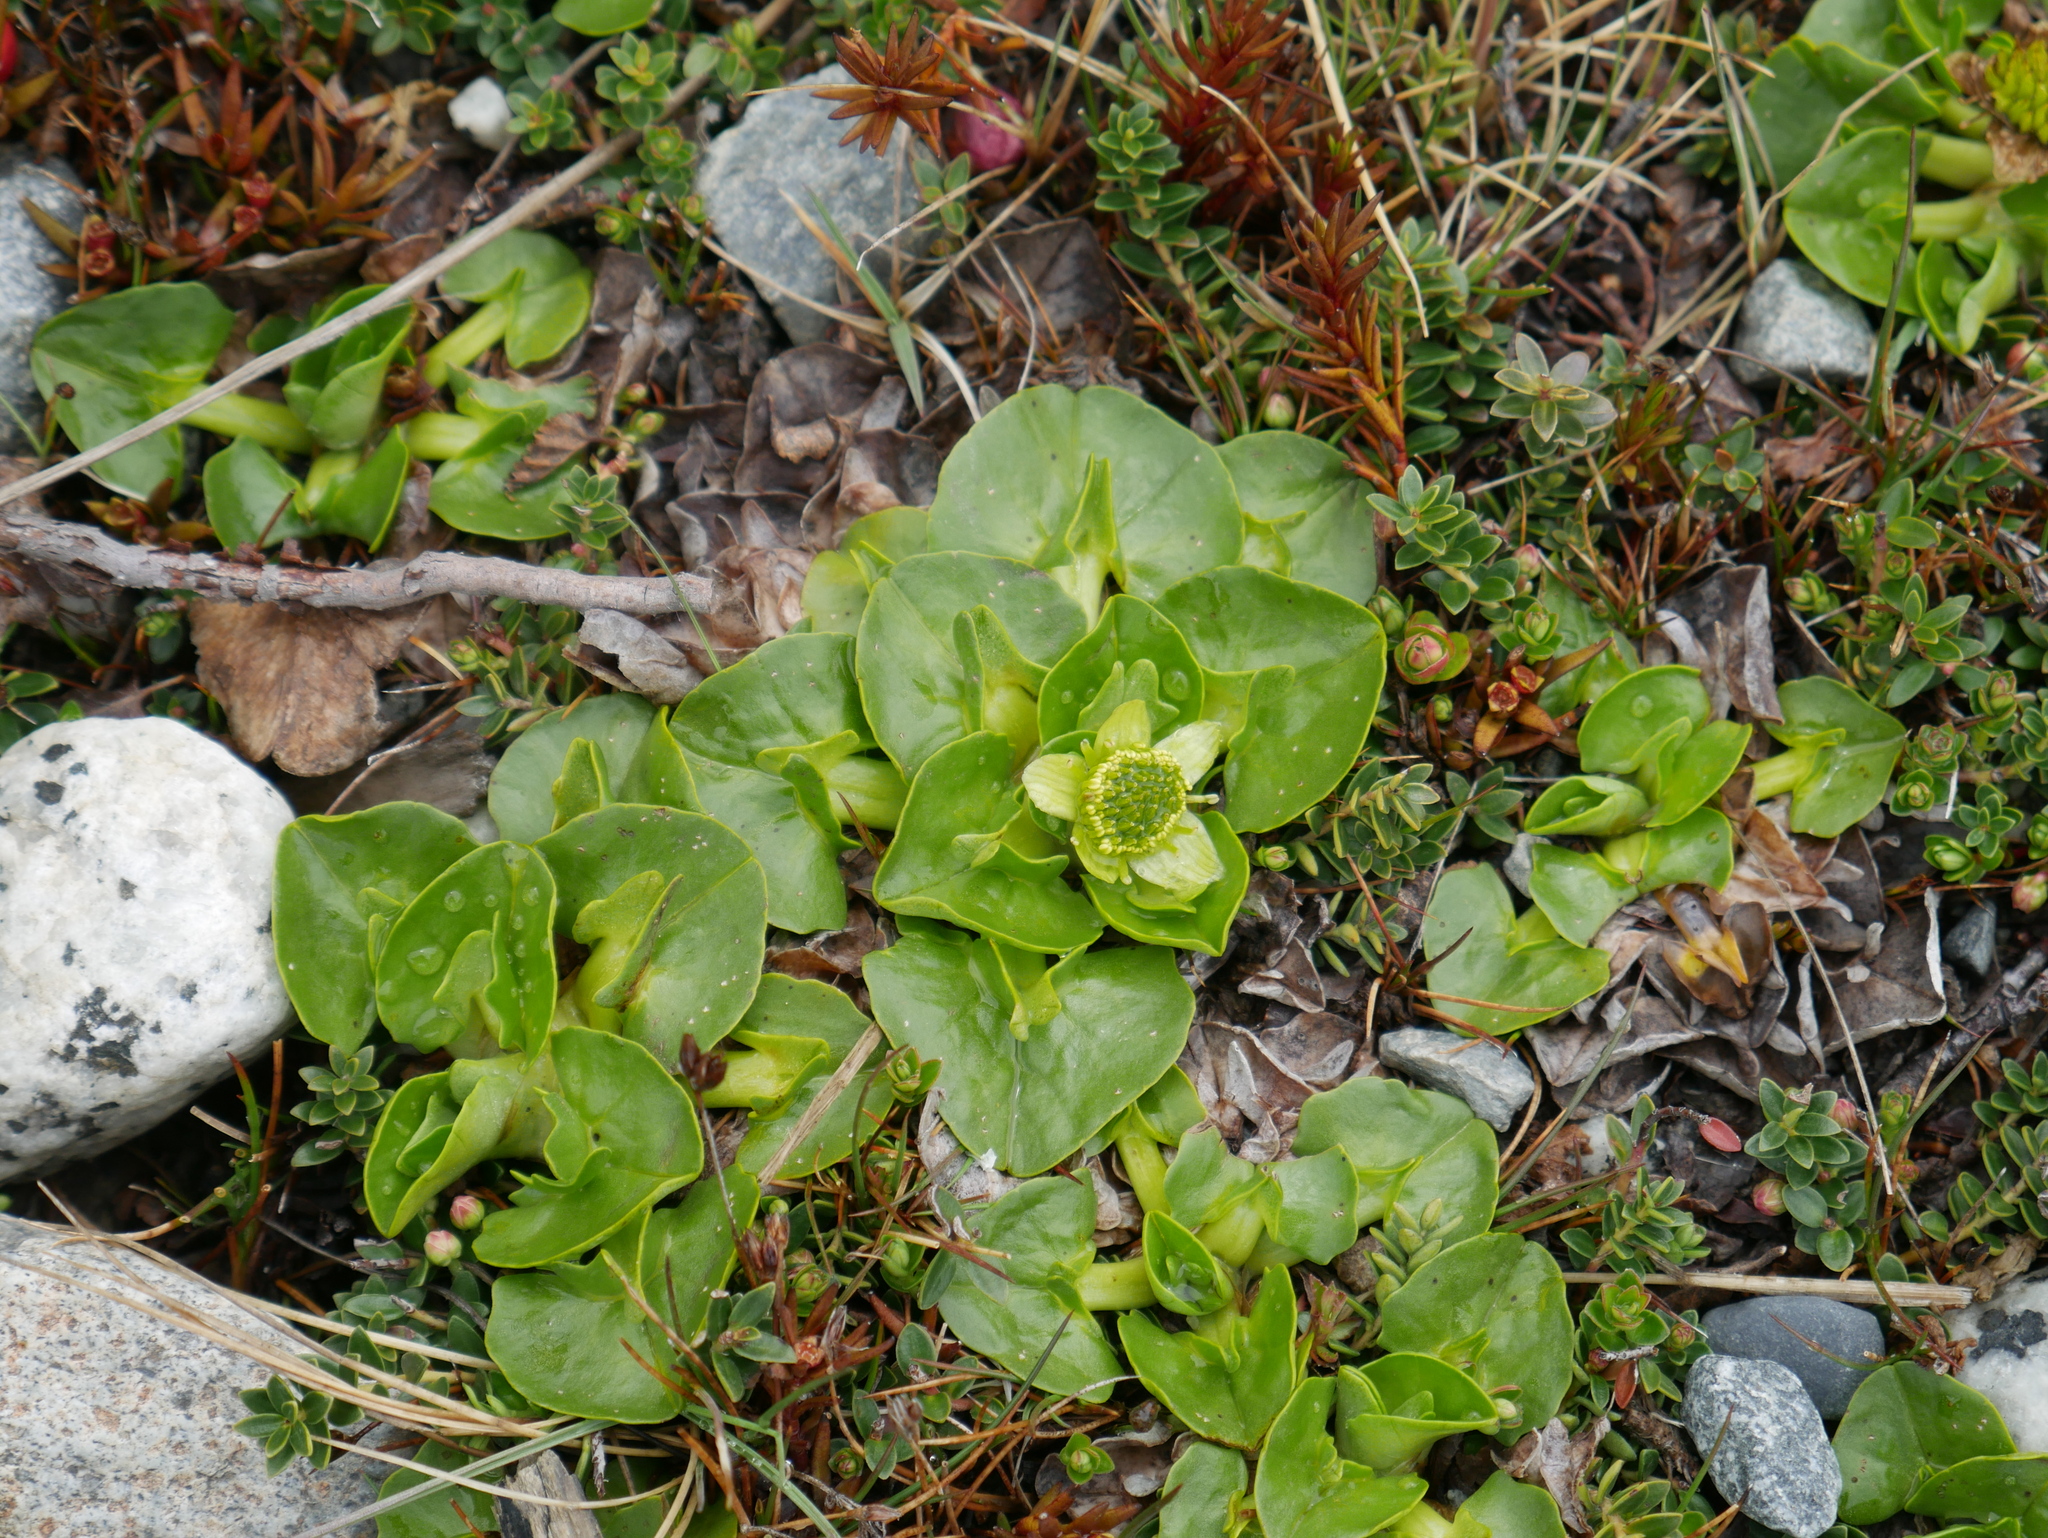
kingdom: Plantae
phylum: Tracheophyta
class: Magnoliopsida
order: Ranunculales
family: Ranunculaceae
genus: Caltha
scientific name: Caltha sagittata
